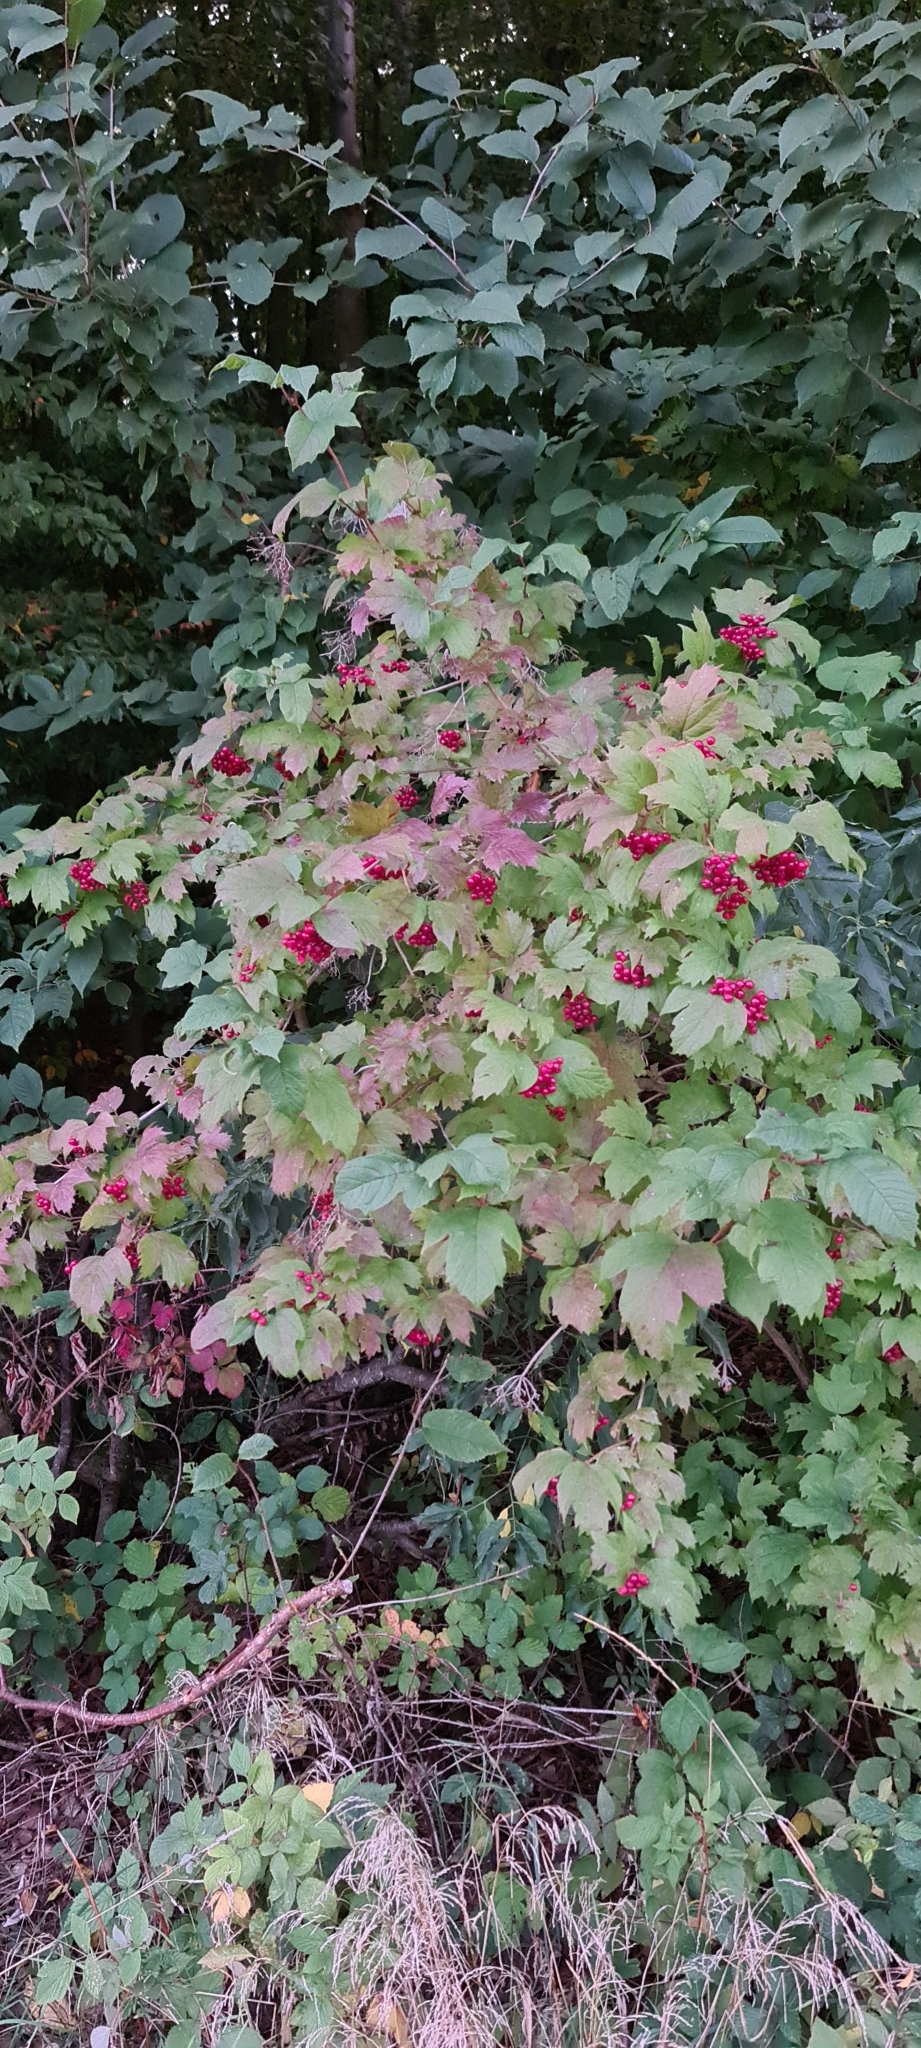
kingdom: Plantae
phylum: Tracheophyta
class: Magnoliopsida
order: Dipsacales
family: Viburnaceae
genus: Viburnum
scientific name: Viburnum opulus
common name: Guelder-rose
